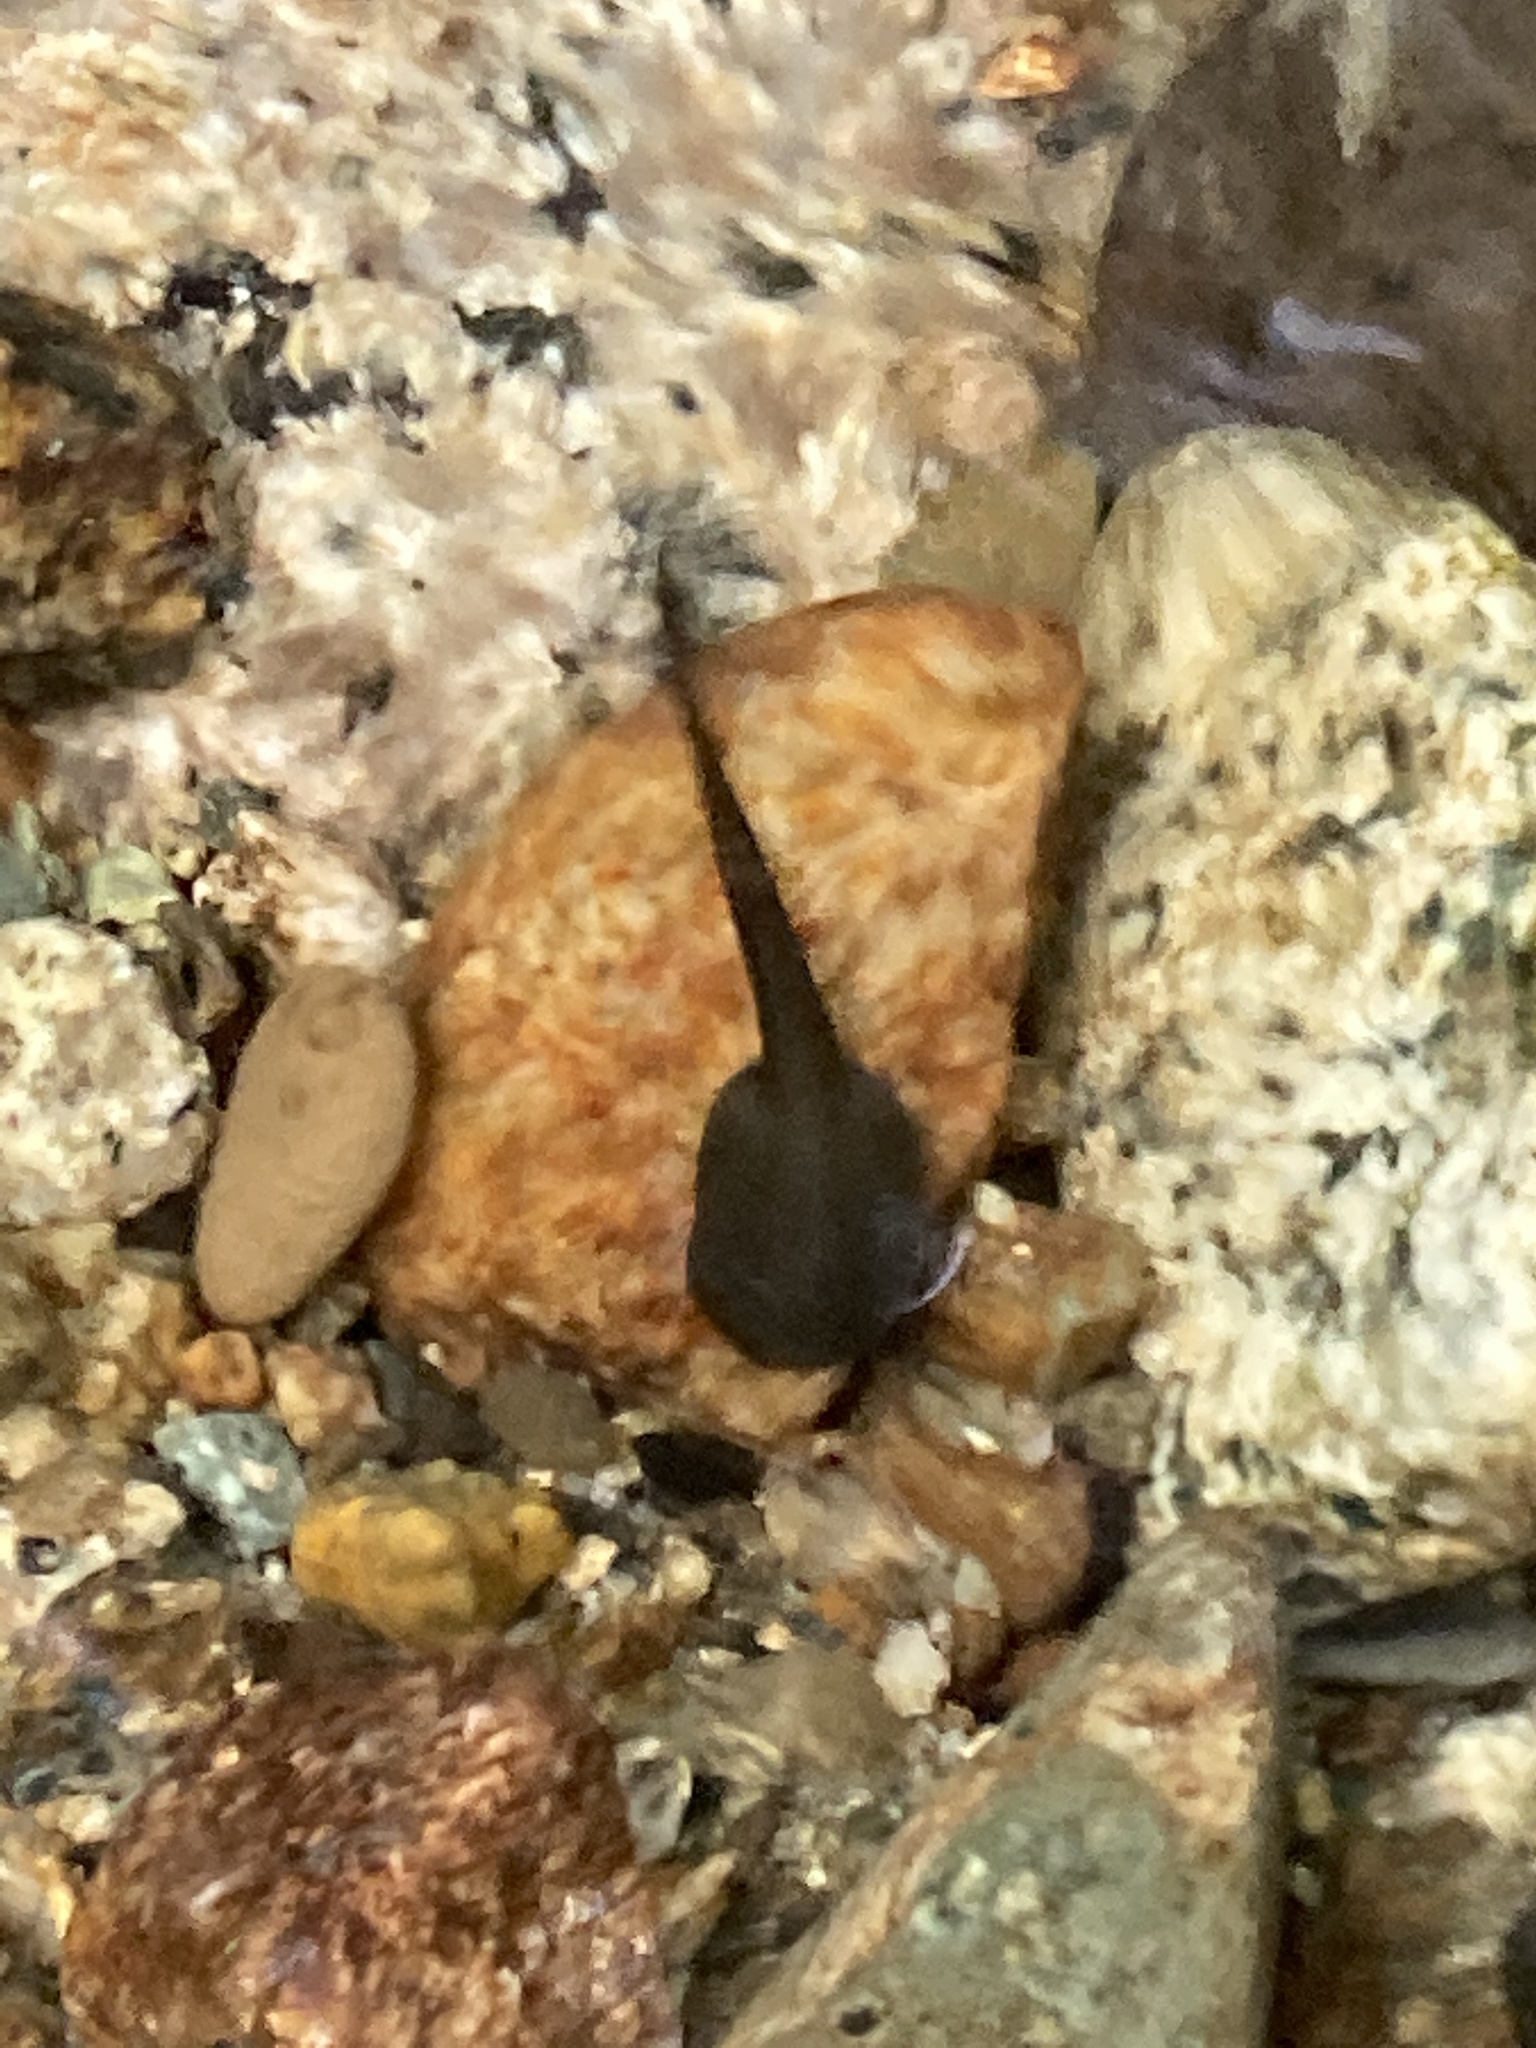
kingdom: Animalia
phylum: Chordata
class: Amphibia
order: Anura
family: Ascaphidae
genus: Ascaphus
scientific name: Ascaphus truei
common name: Tailed frog
